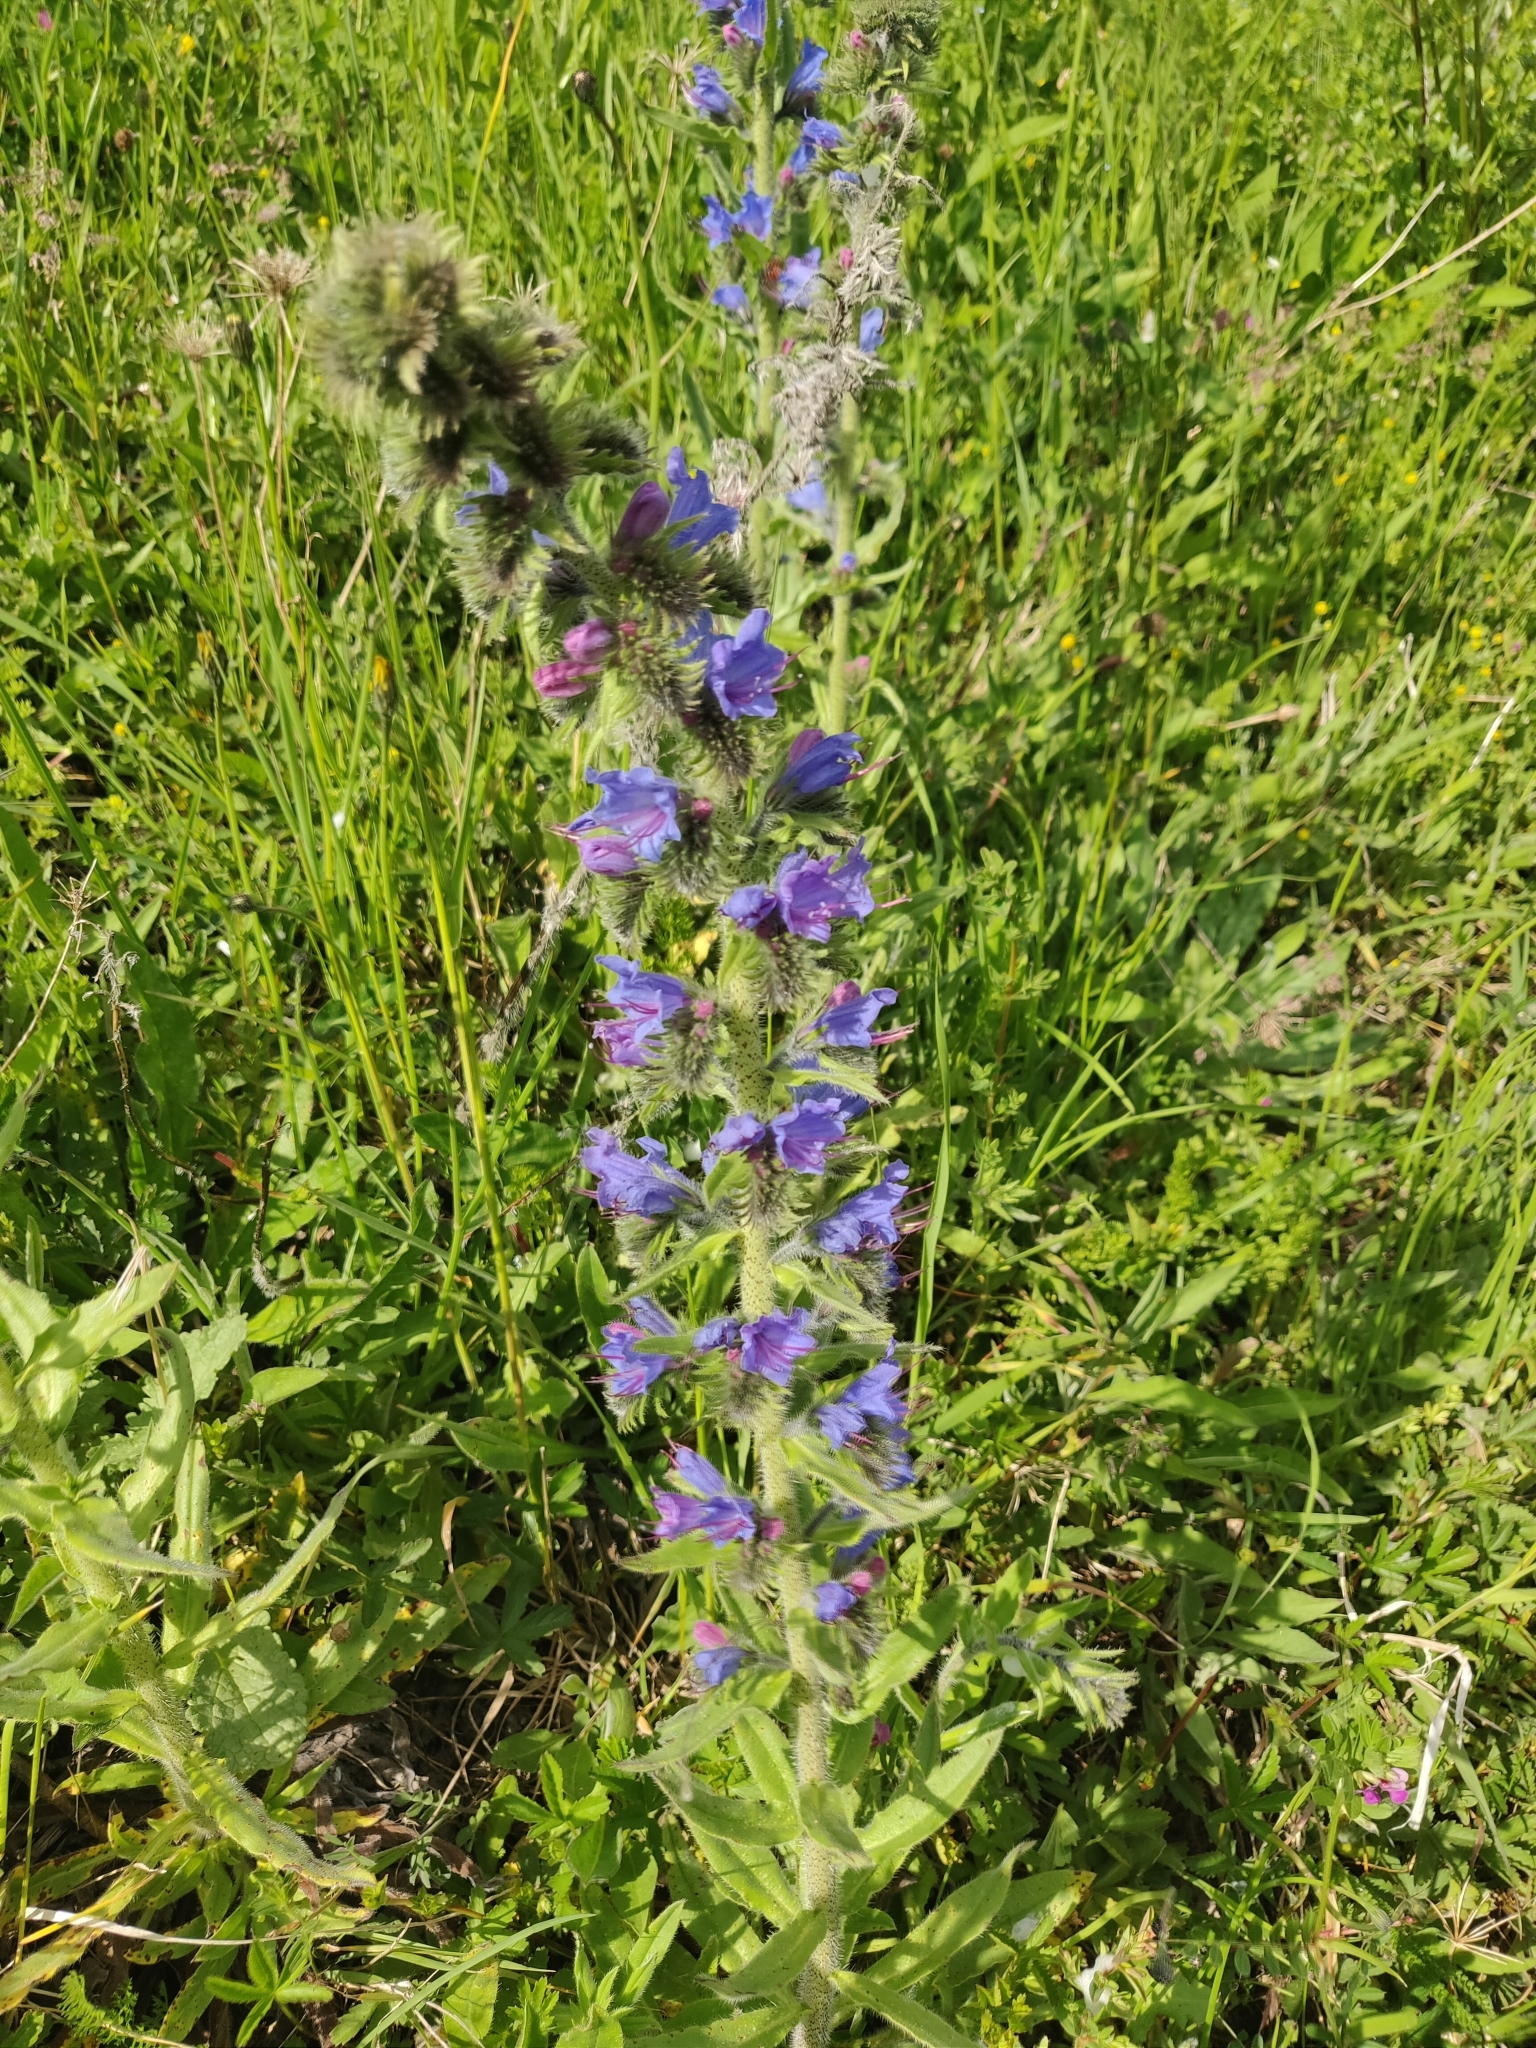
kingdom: Plantae
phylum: Tracheophyta
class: Magnoliopsida
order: Boraginales
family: Boraginaceae
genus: Echium
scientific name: Echium vulgare
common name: Common viper's bugloss
